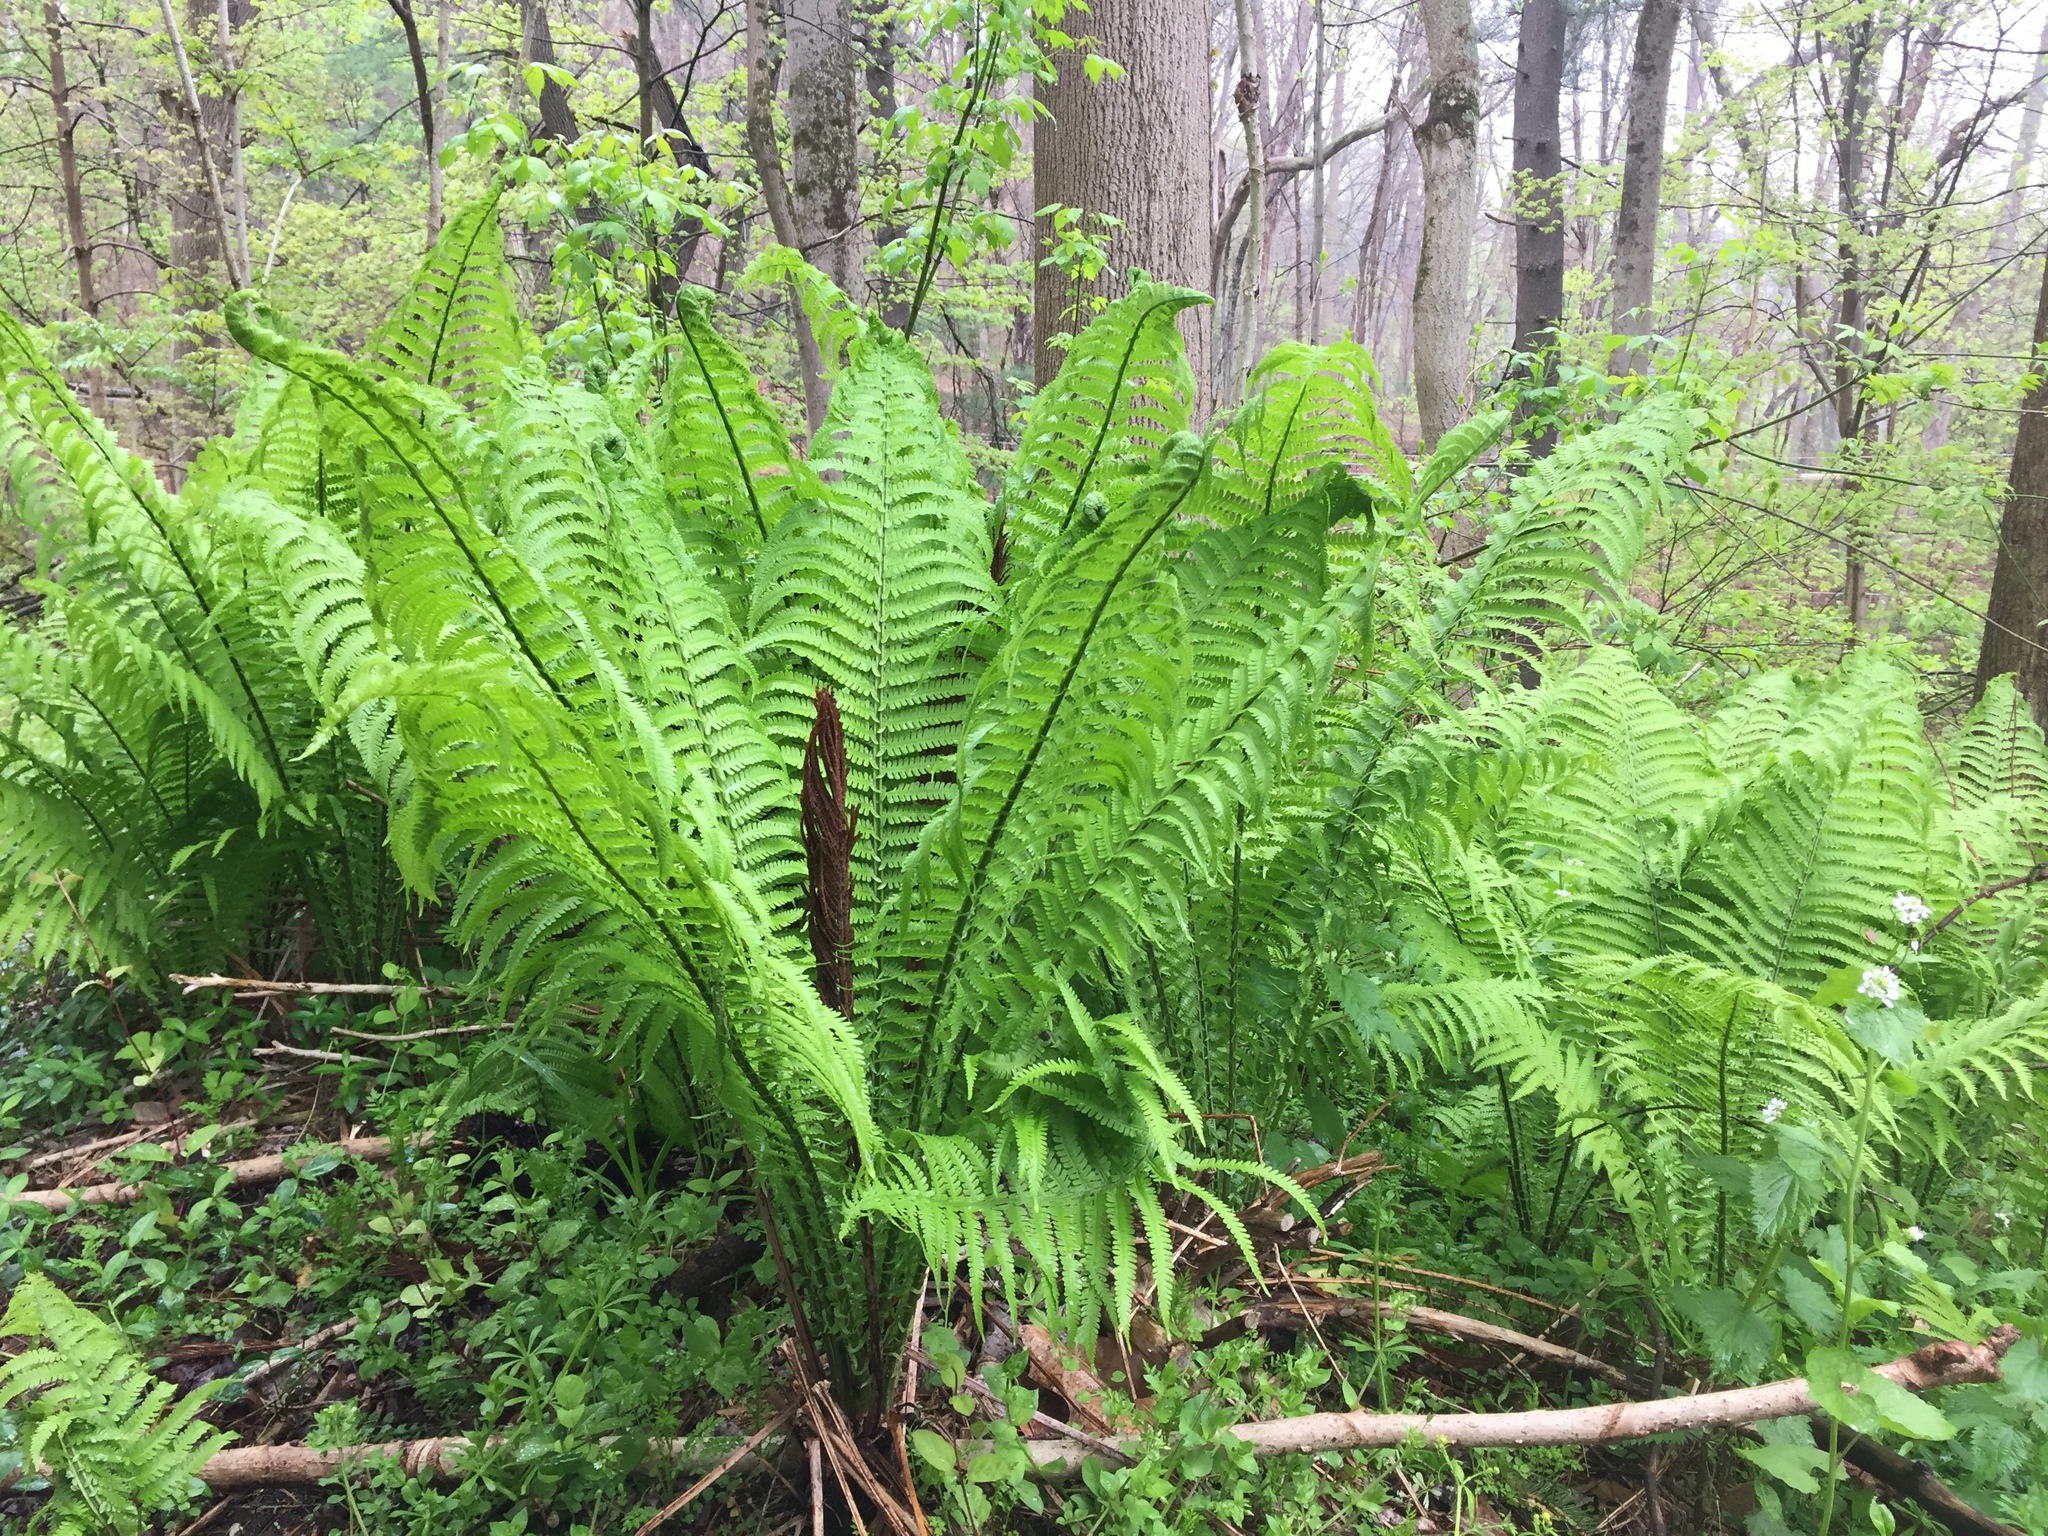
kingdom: Plantae
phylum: Tracheophyta
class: Polypodiopsida
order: Polypodiales
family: Onocleaceae
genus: Matteuccia
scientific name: Matteuccia struthiopteris
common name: Ostrich fern
